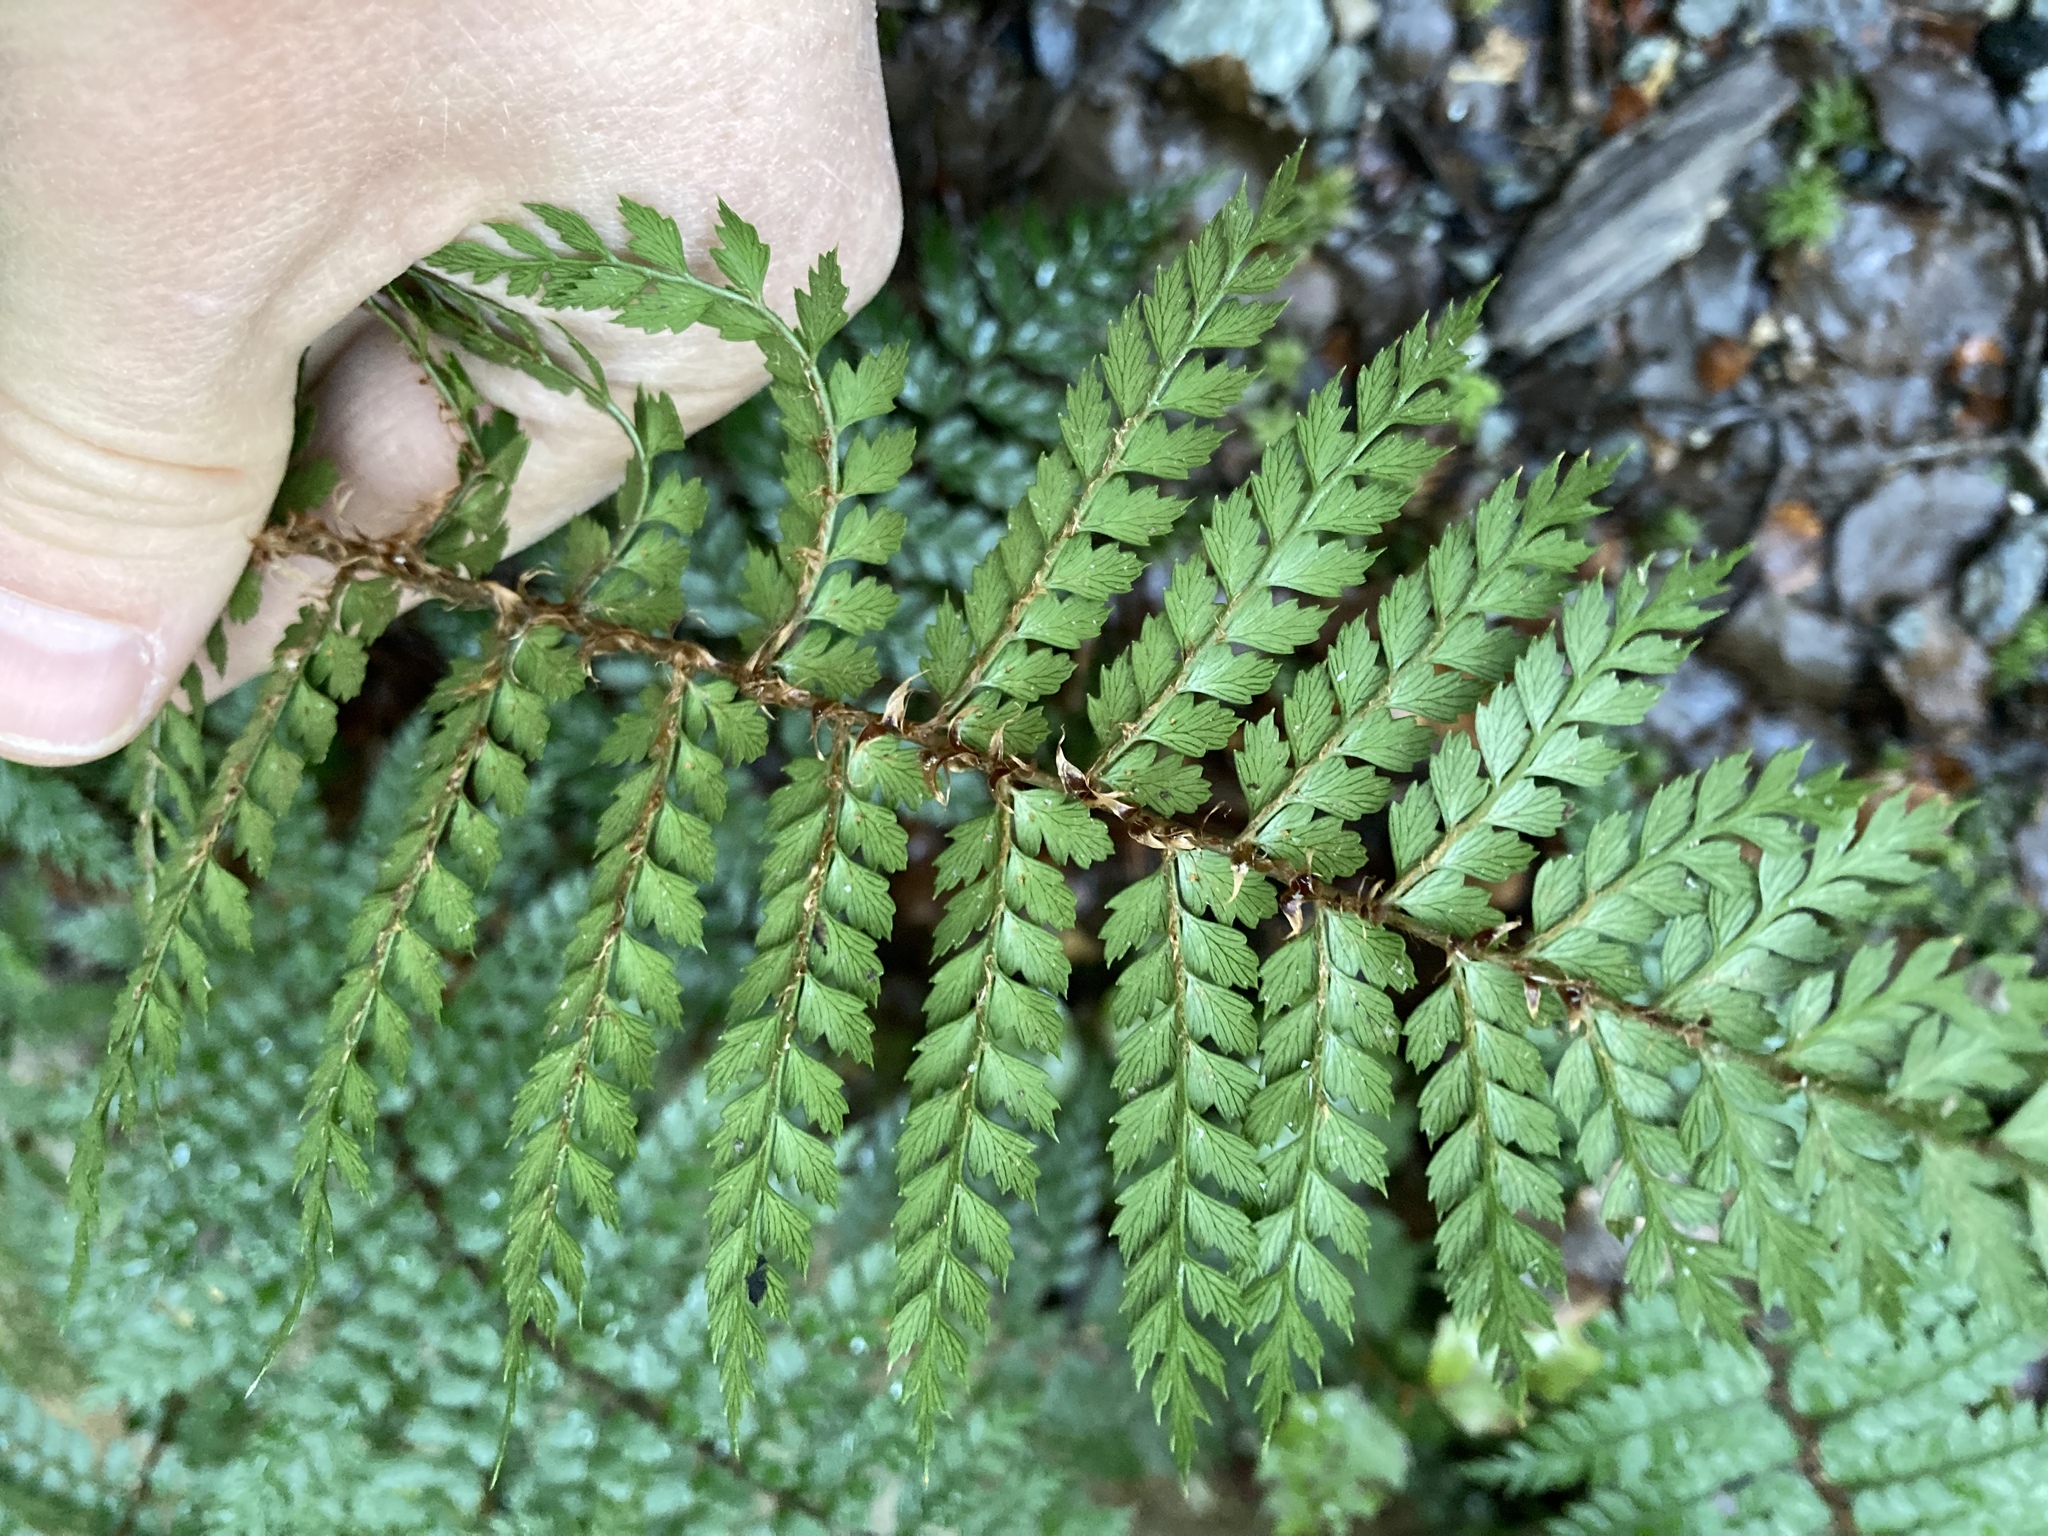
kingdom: Plantae
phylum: Tracheophyta
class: Polypodiopsida
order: Polypodiales
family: Dryopteridaceae
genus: Polystichum
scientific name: Polystichum vestitum
